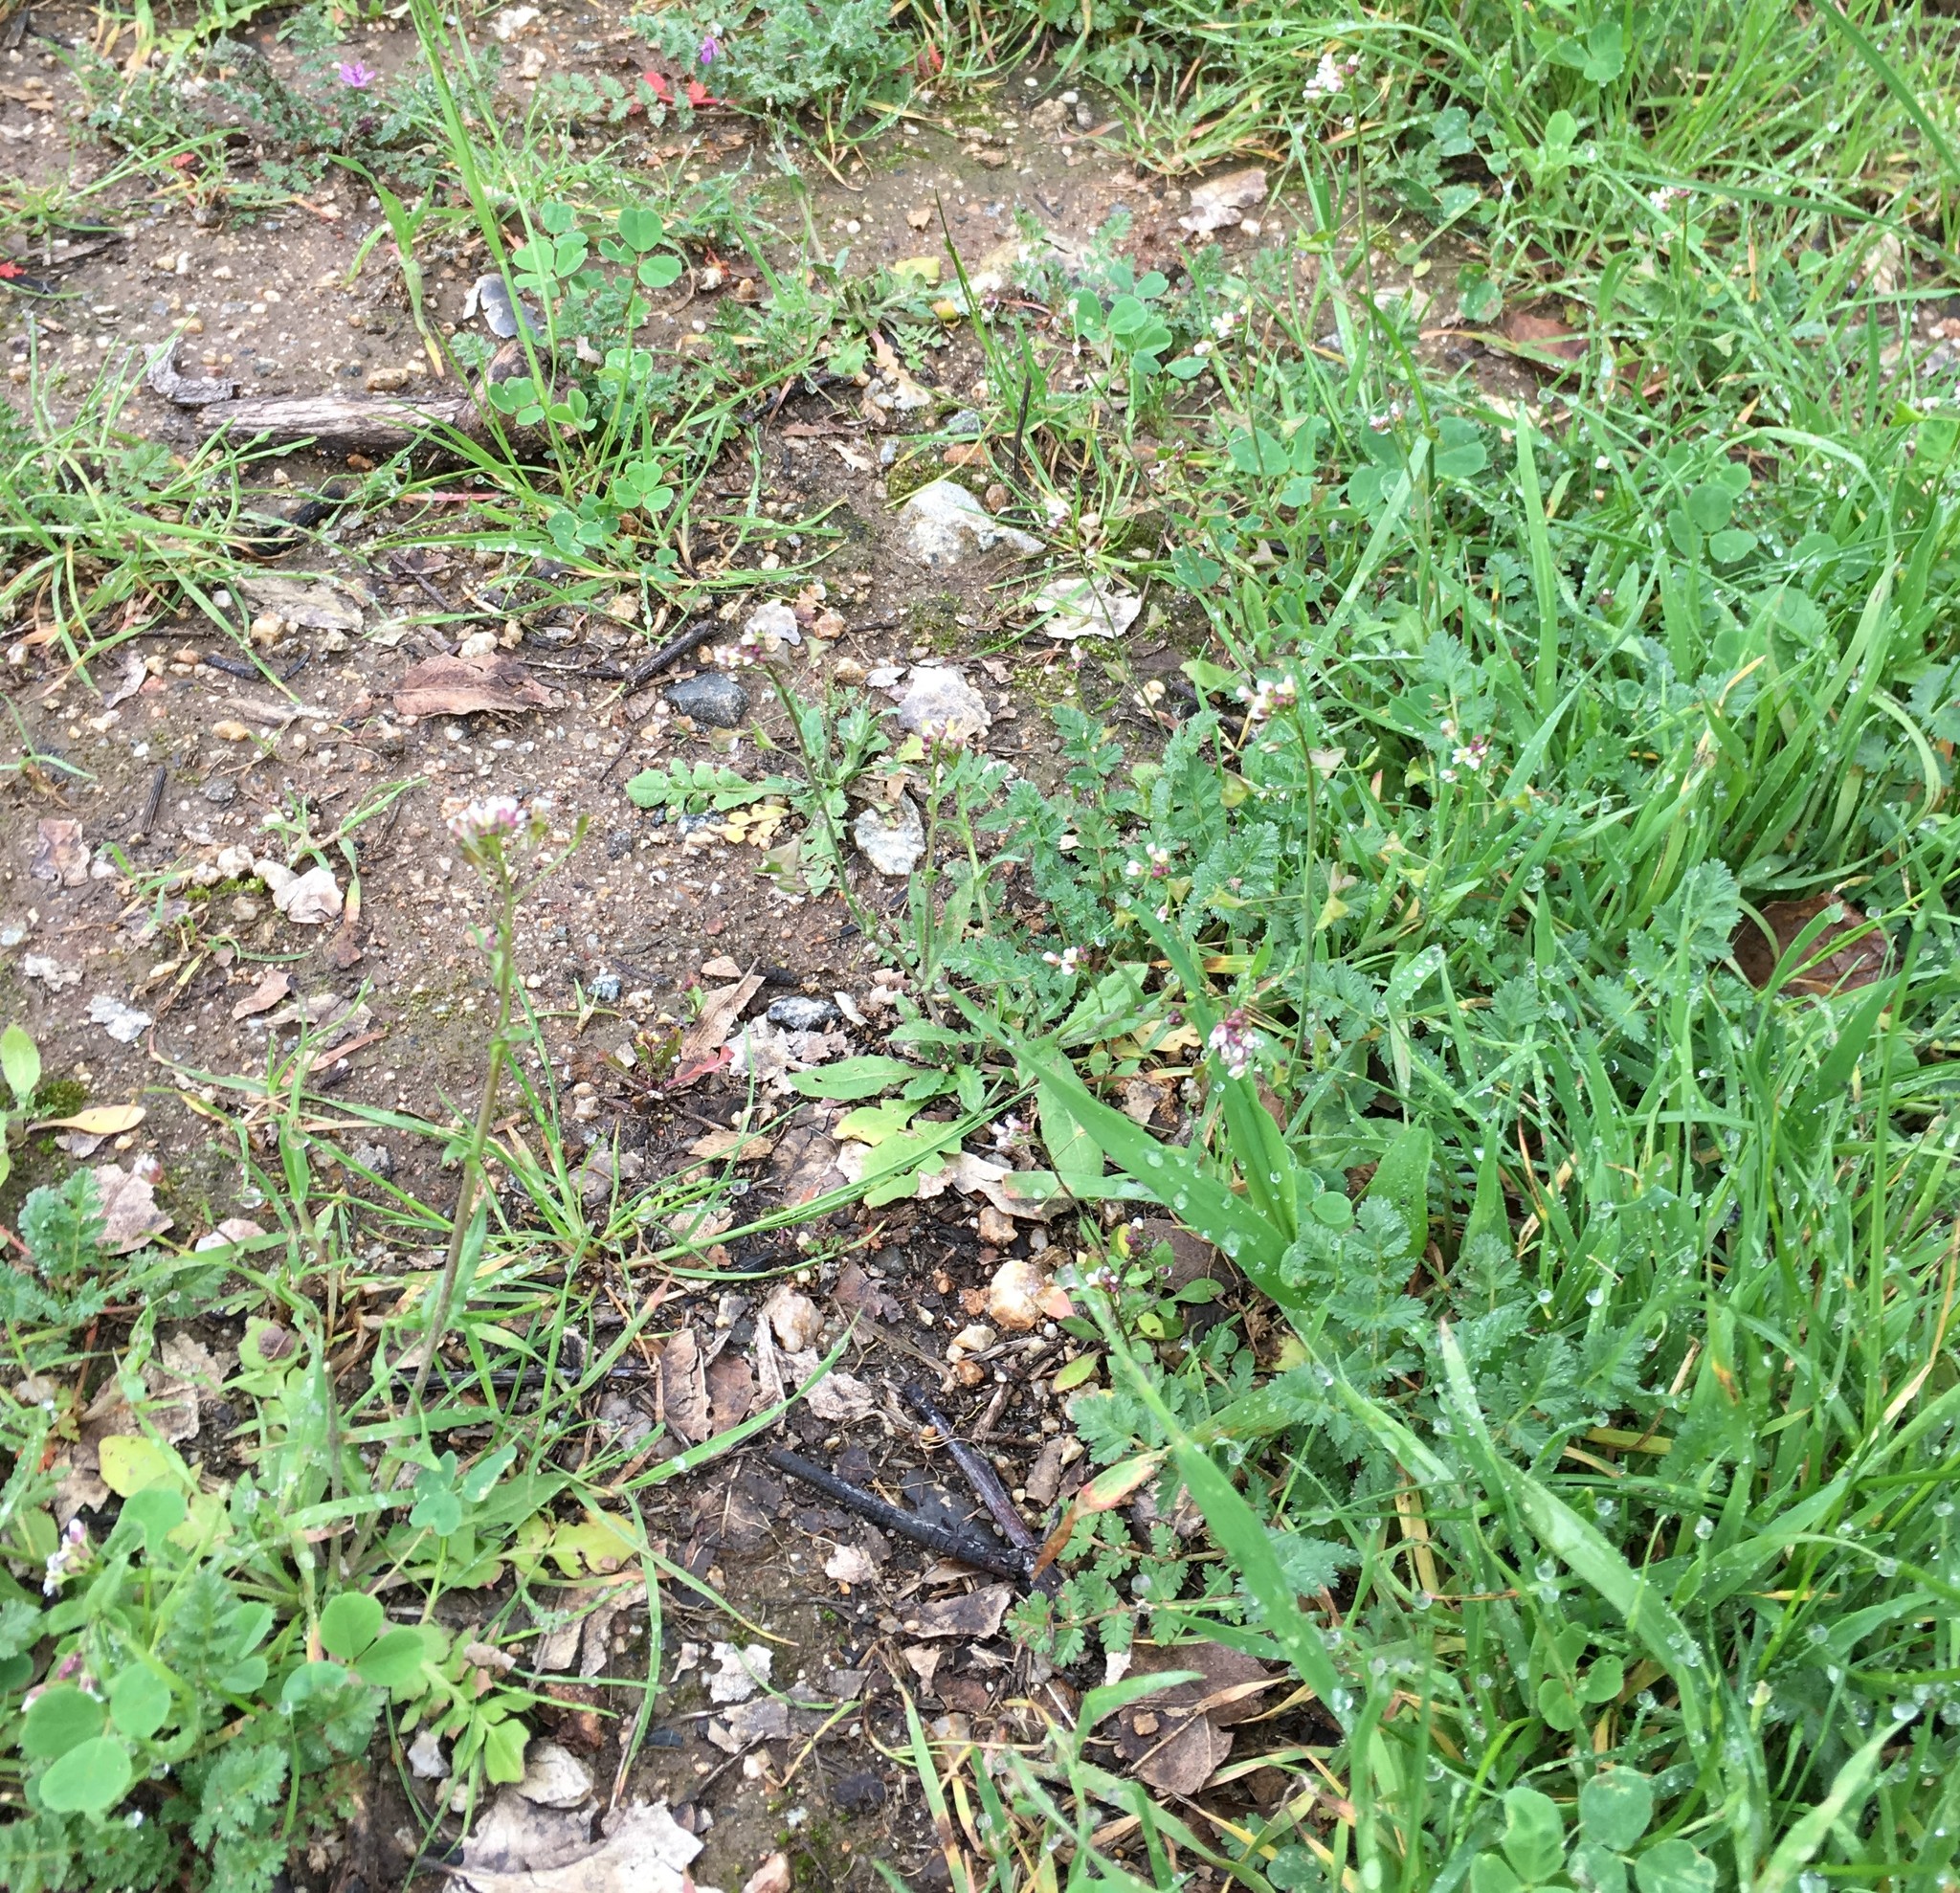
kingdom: Plantae
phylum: Tracheophyta
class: Magnoliopsida
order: Brassicales
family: Brassicaceae
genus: Capsella
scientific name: Capsella bursa-pastoris
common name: Shepherd's purse
